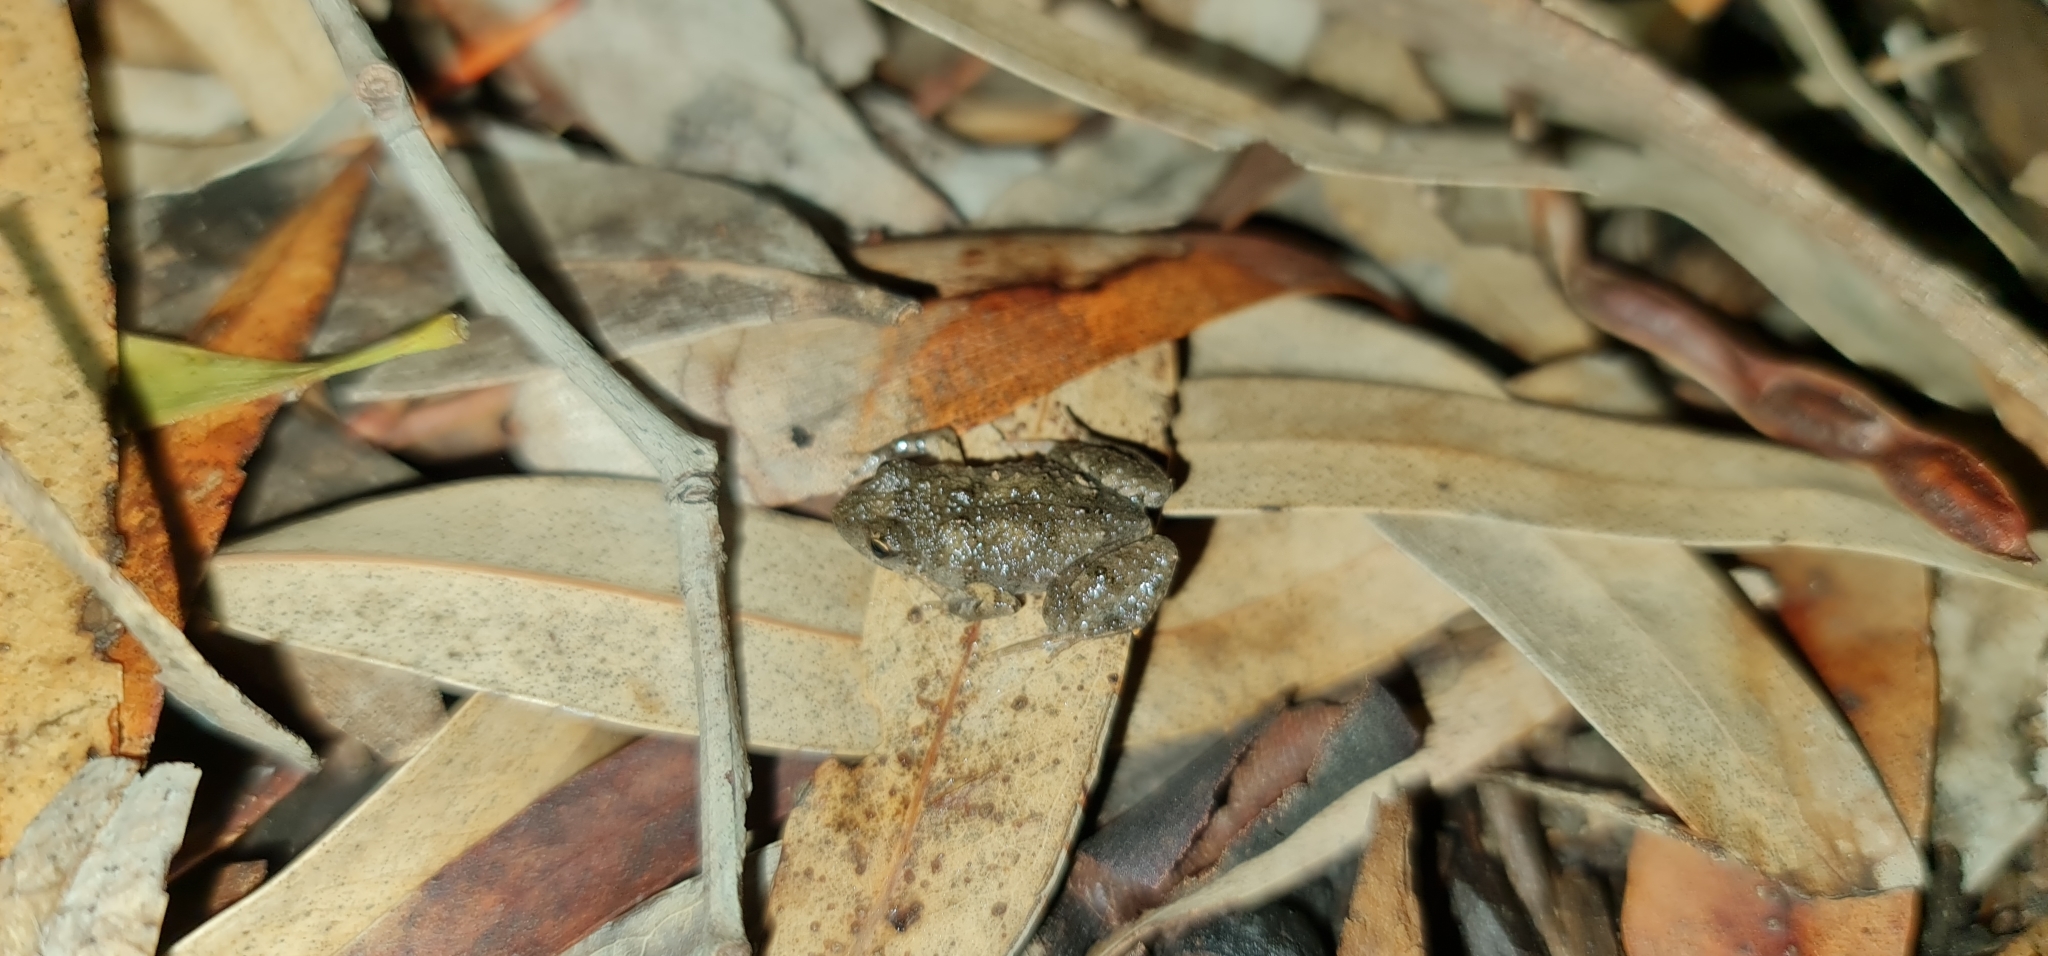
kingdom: Animalia
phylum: Chordata
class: Amphibia
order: Anura
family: Myobatrachidae
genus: Crinia
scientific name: Crinia signifera
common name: Brown froglet
